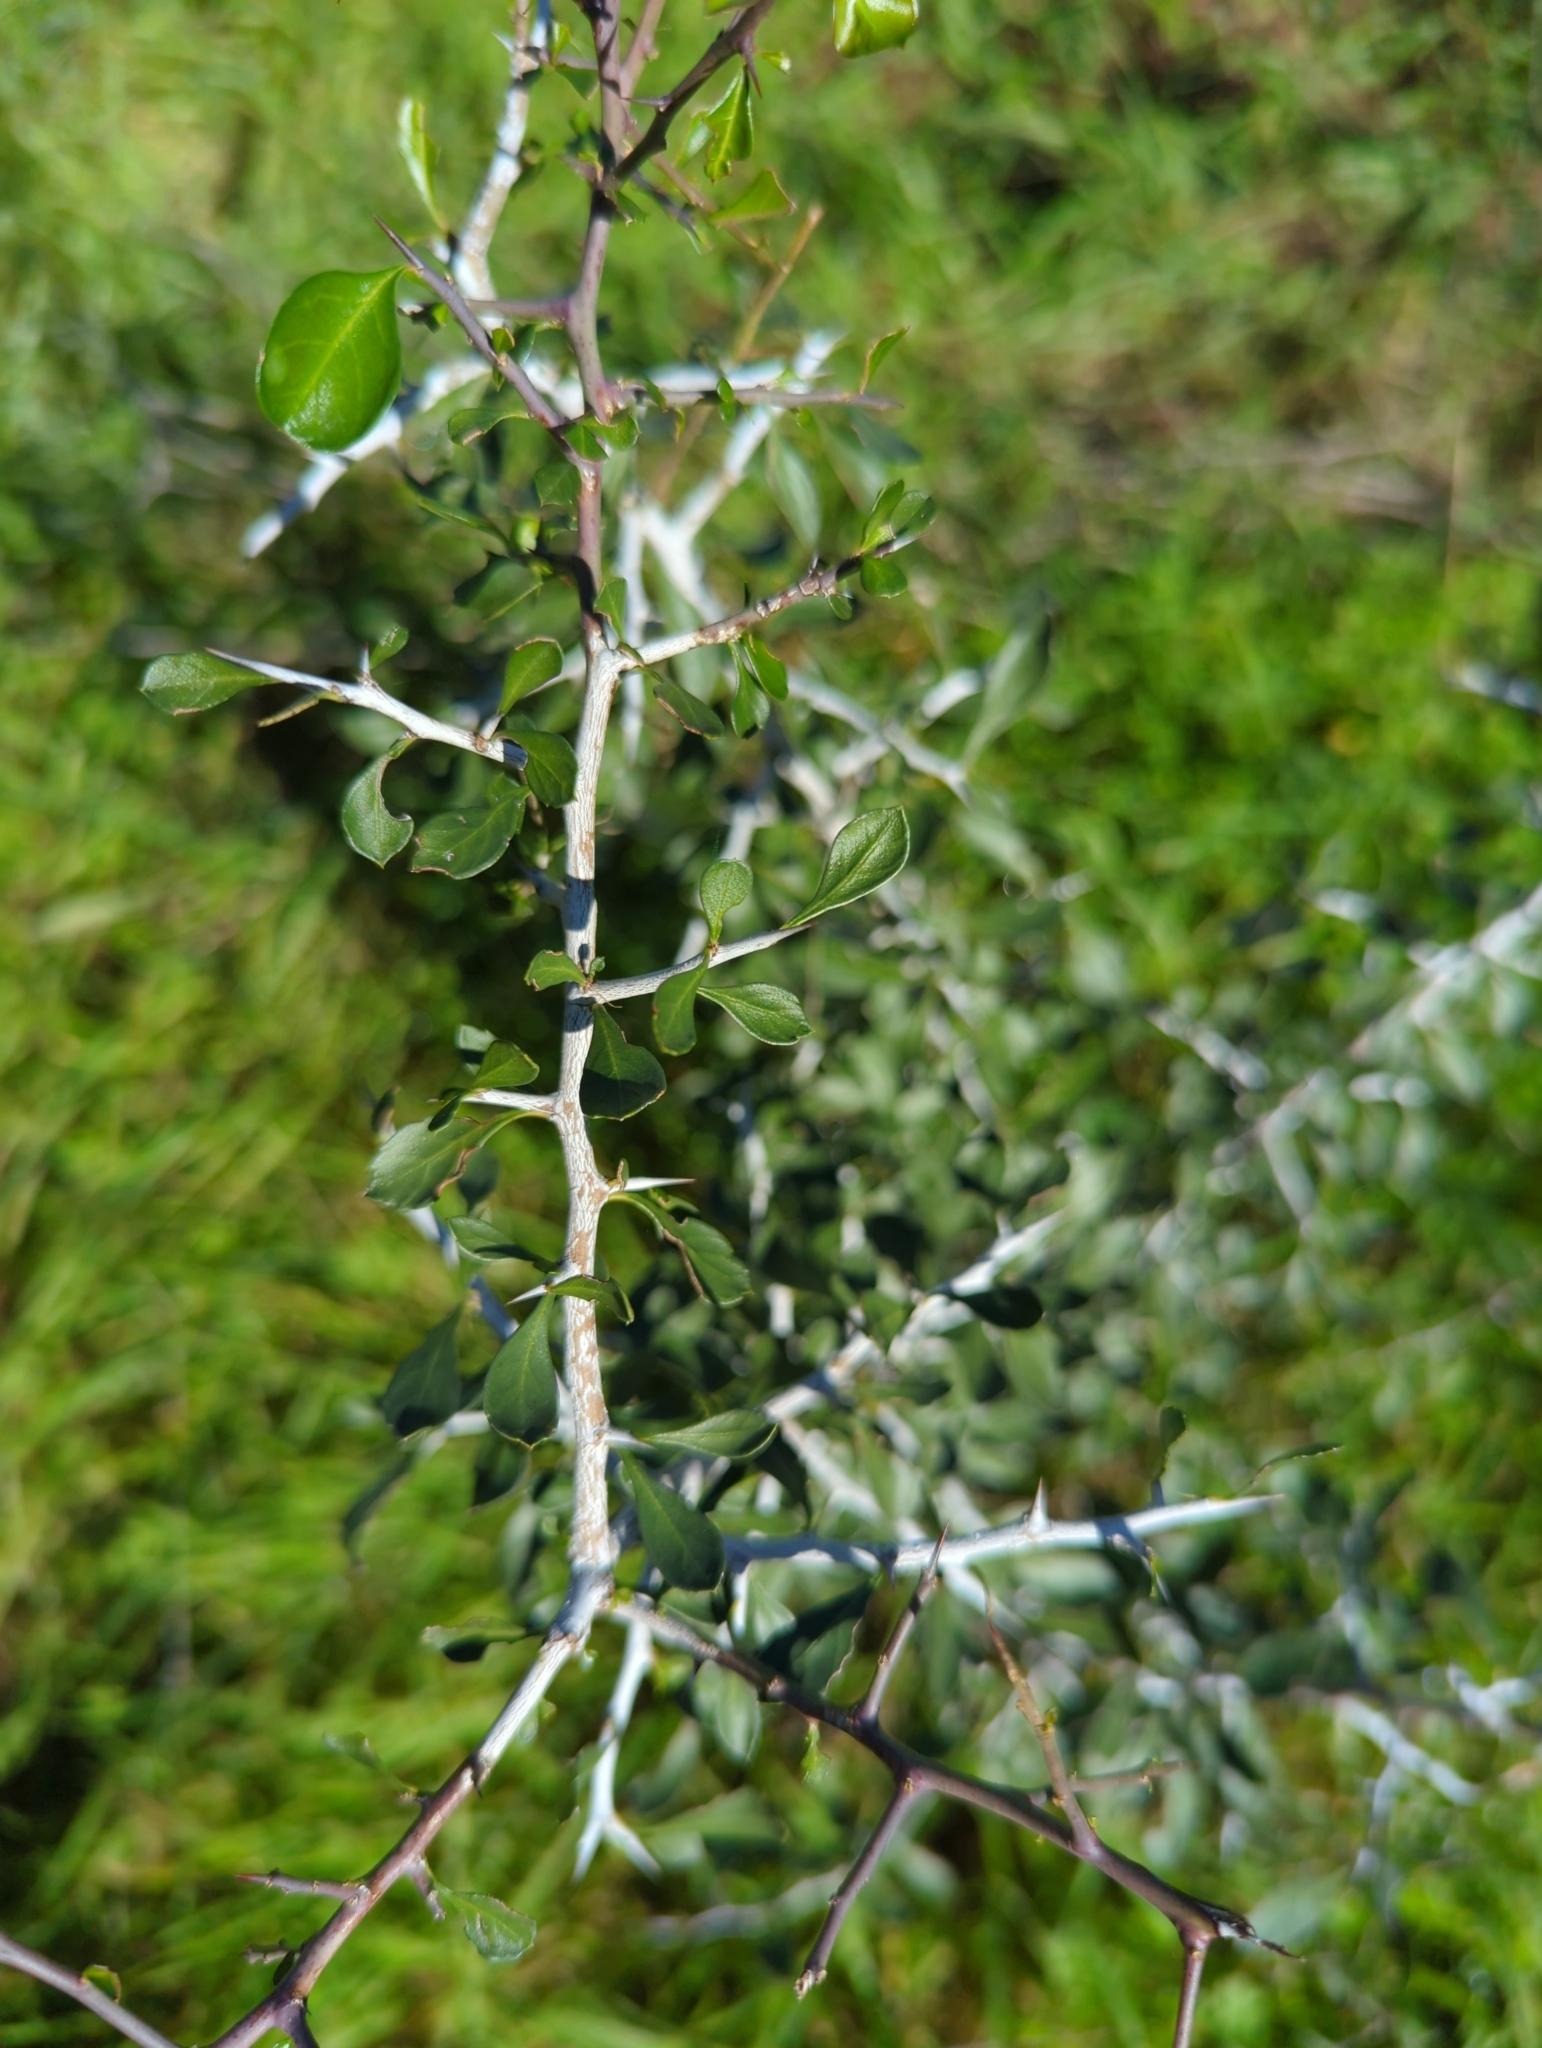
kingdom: Plantae
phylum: Tracheophyta
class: Magnoliopsida
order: Rosales
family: Rhamnaceae
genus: Condalia
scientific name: Condalia hookeri
